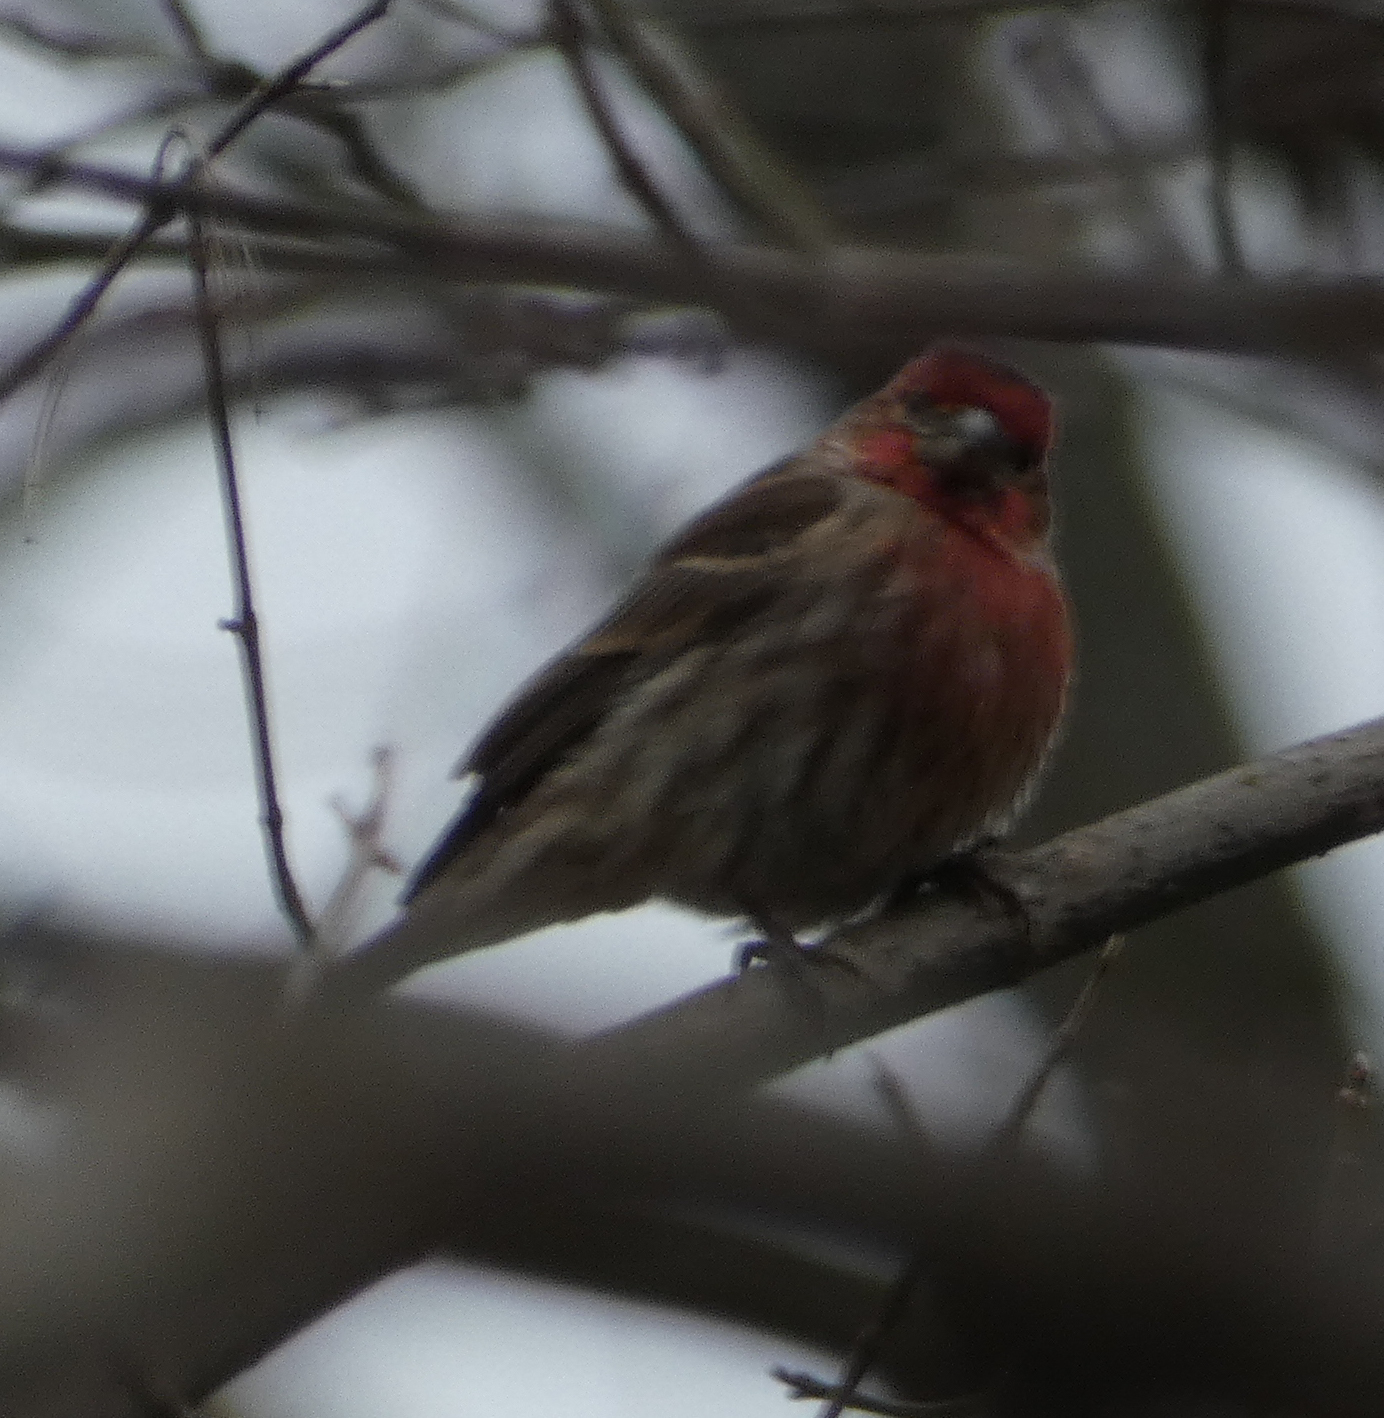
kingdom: Animalia
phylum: Chordata
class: Aves
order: Passeriformes
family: Fringillidae
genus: Haemorhous
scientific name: Haemorhous mexicanus
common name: House finch
